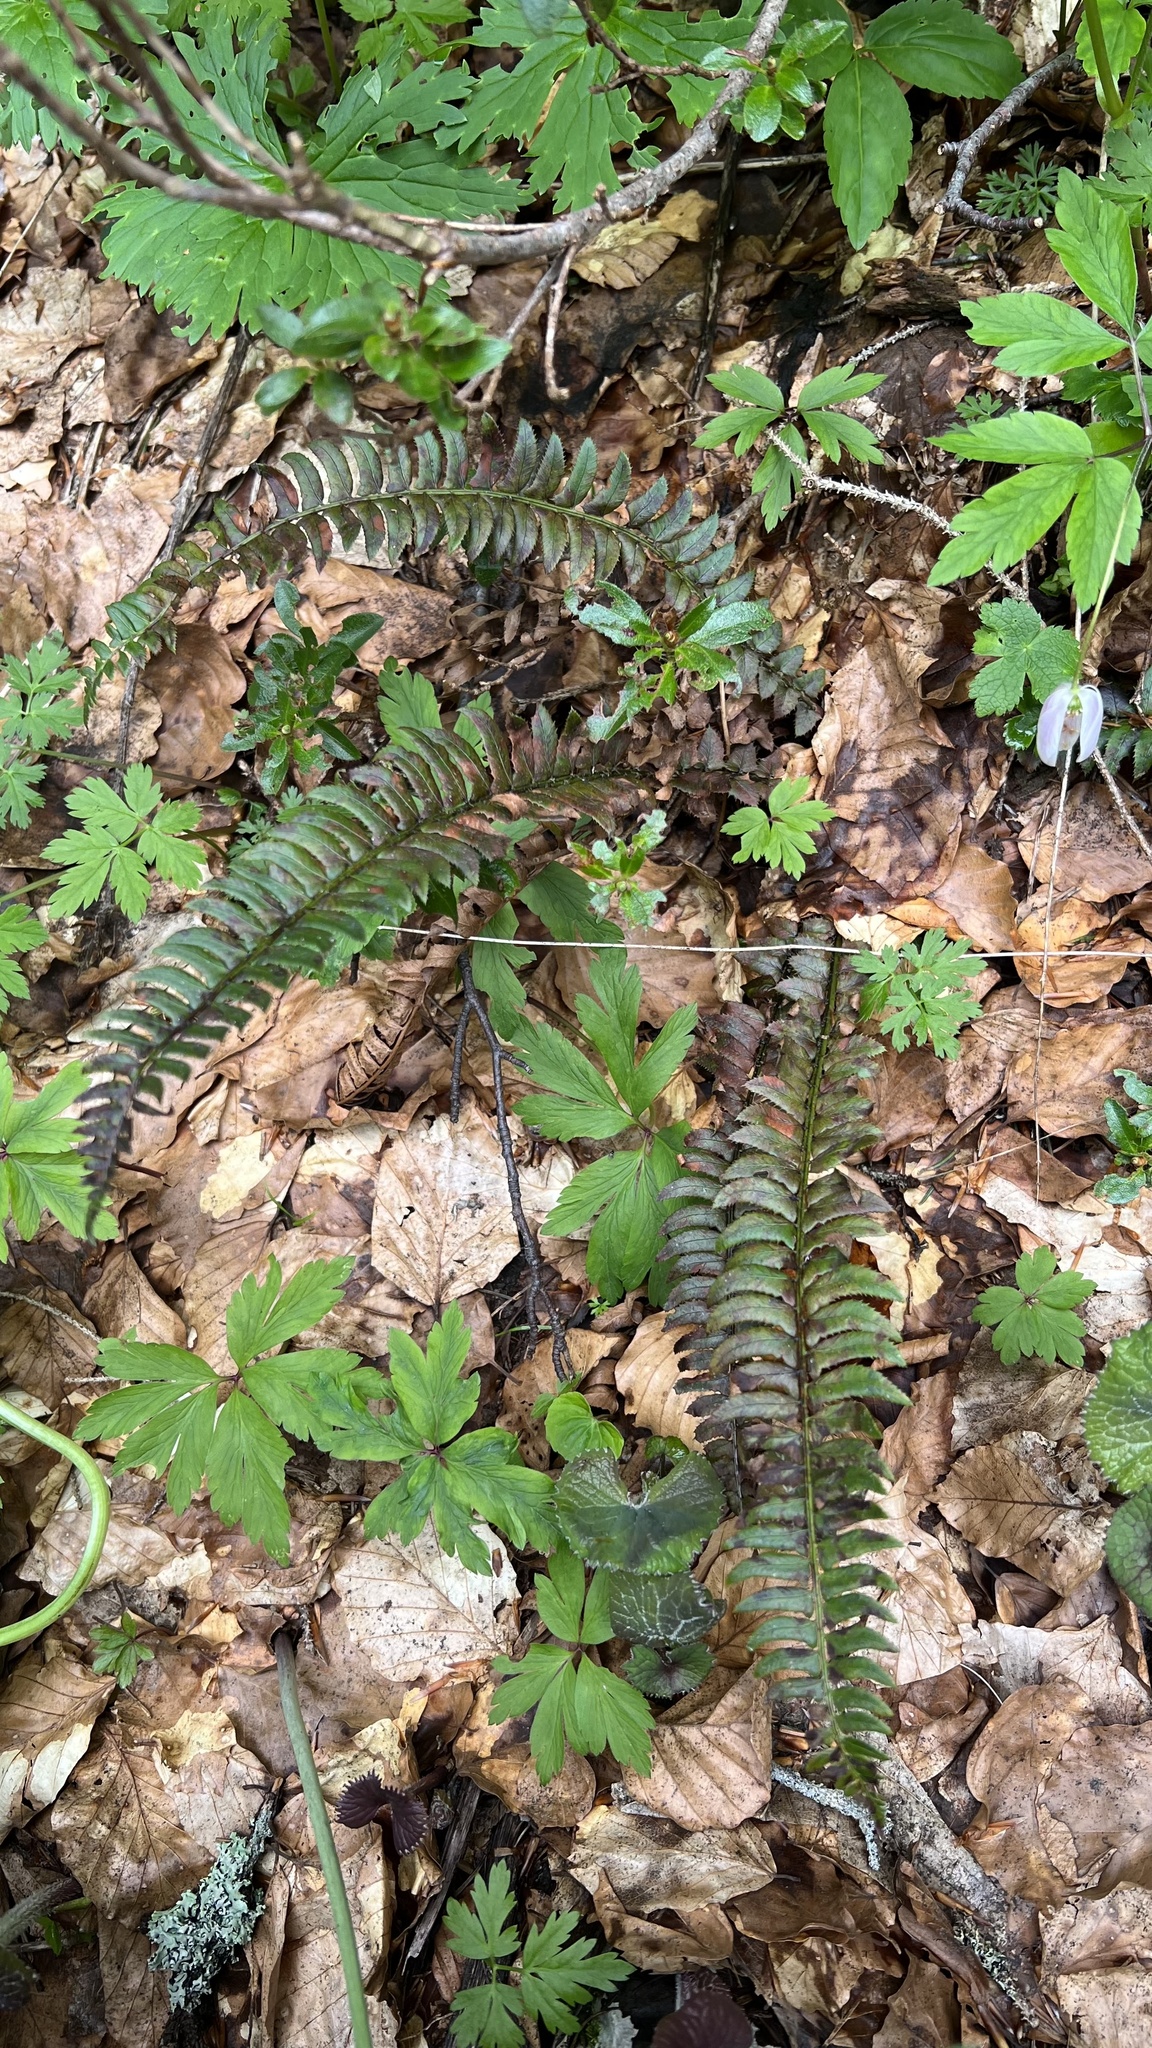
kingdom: Plantae
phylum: Tracheophyta
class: Polypodiopsida
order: Polypodiales
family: Dryopteridaceae
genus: Polystichum
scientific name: Polystichum lonchitis
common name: Holly fern
